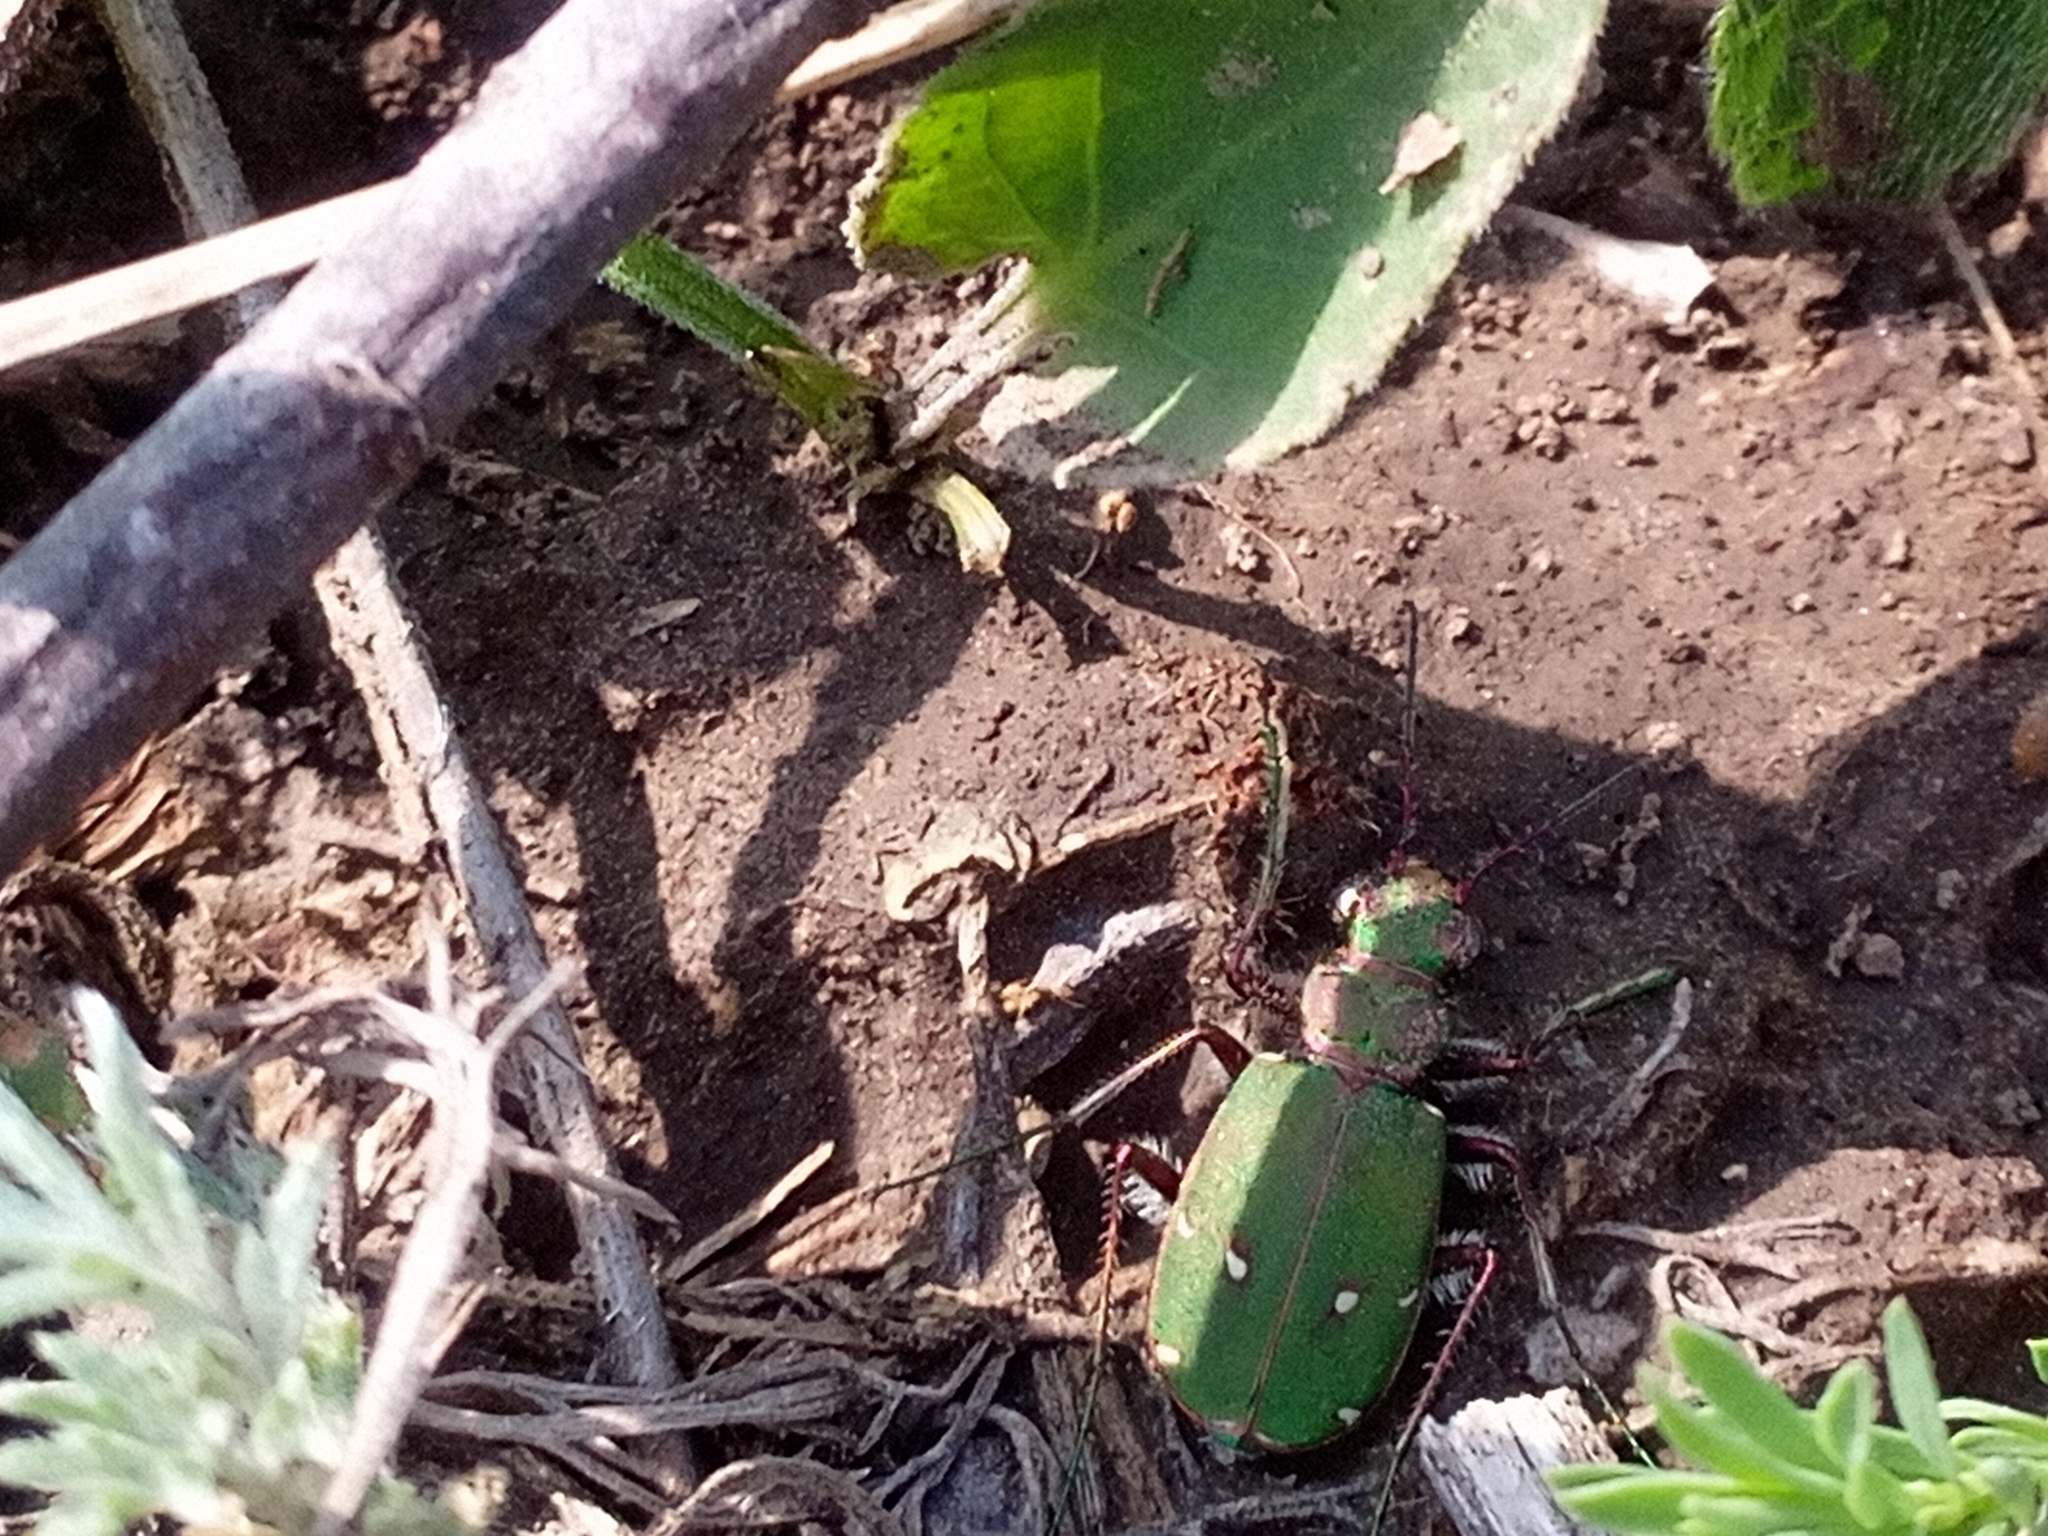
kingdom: Animalia
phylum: Arthropoda
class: Insecta
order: Coleoptera
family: Carabidae
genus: Cicindela
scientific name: Cicindela campestris
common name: Common tiger beetle
